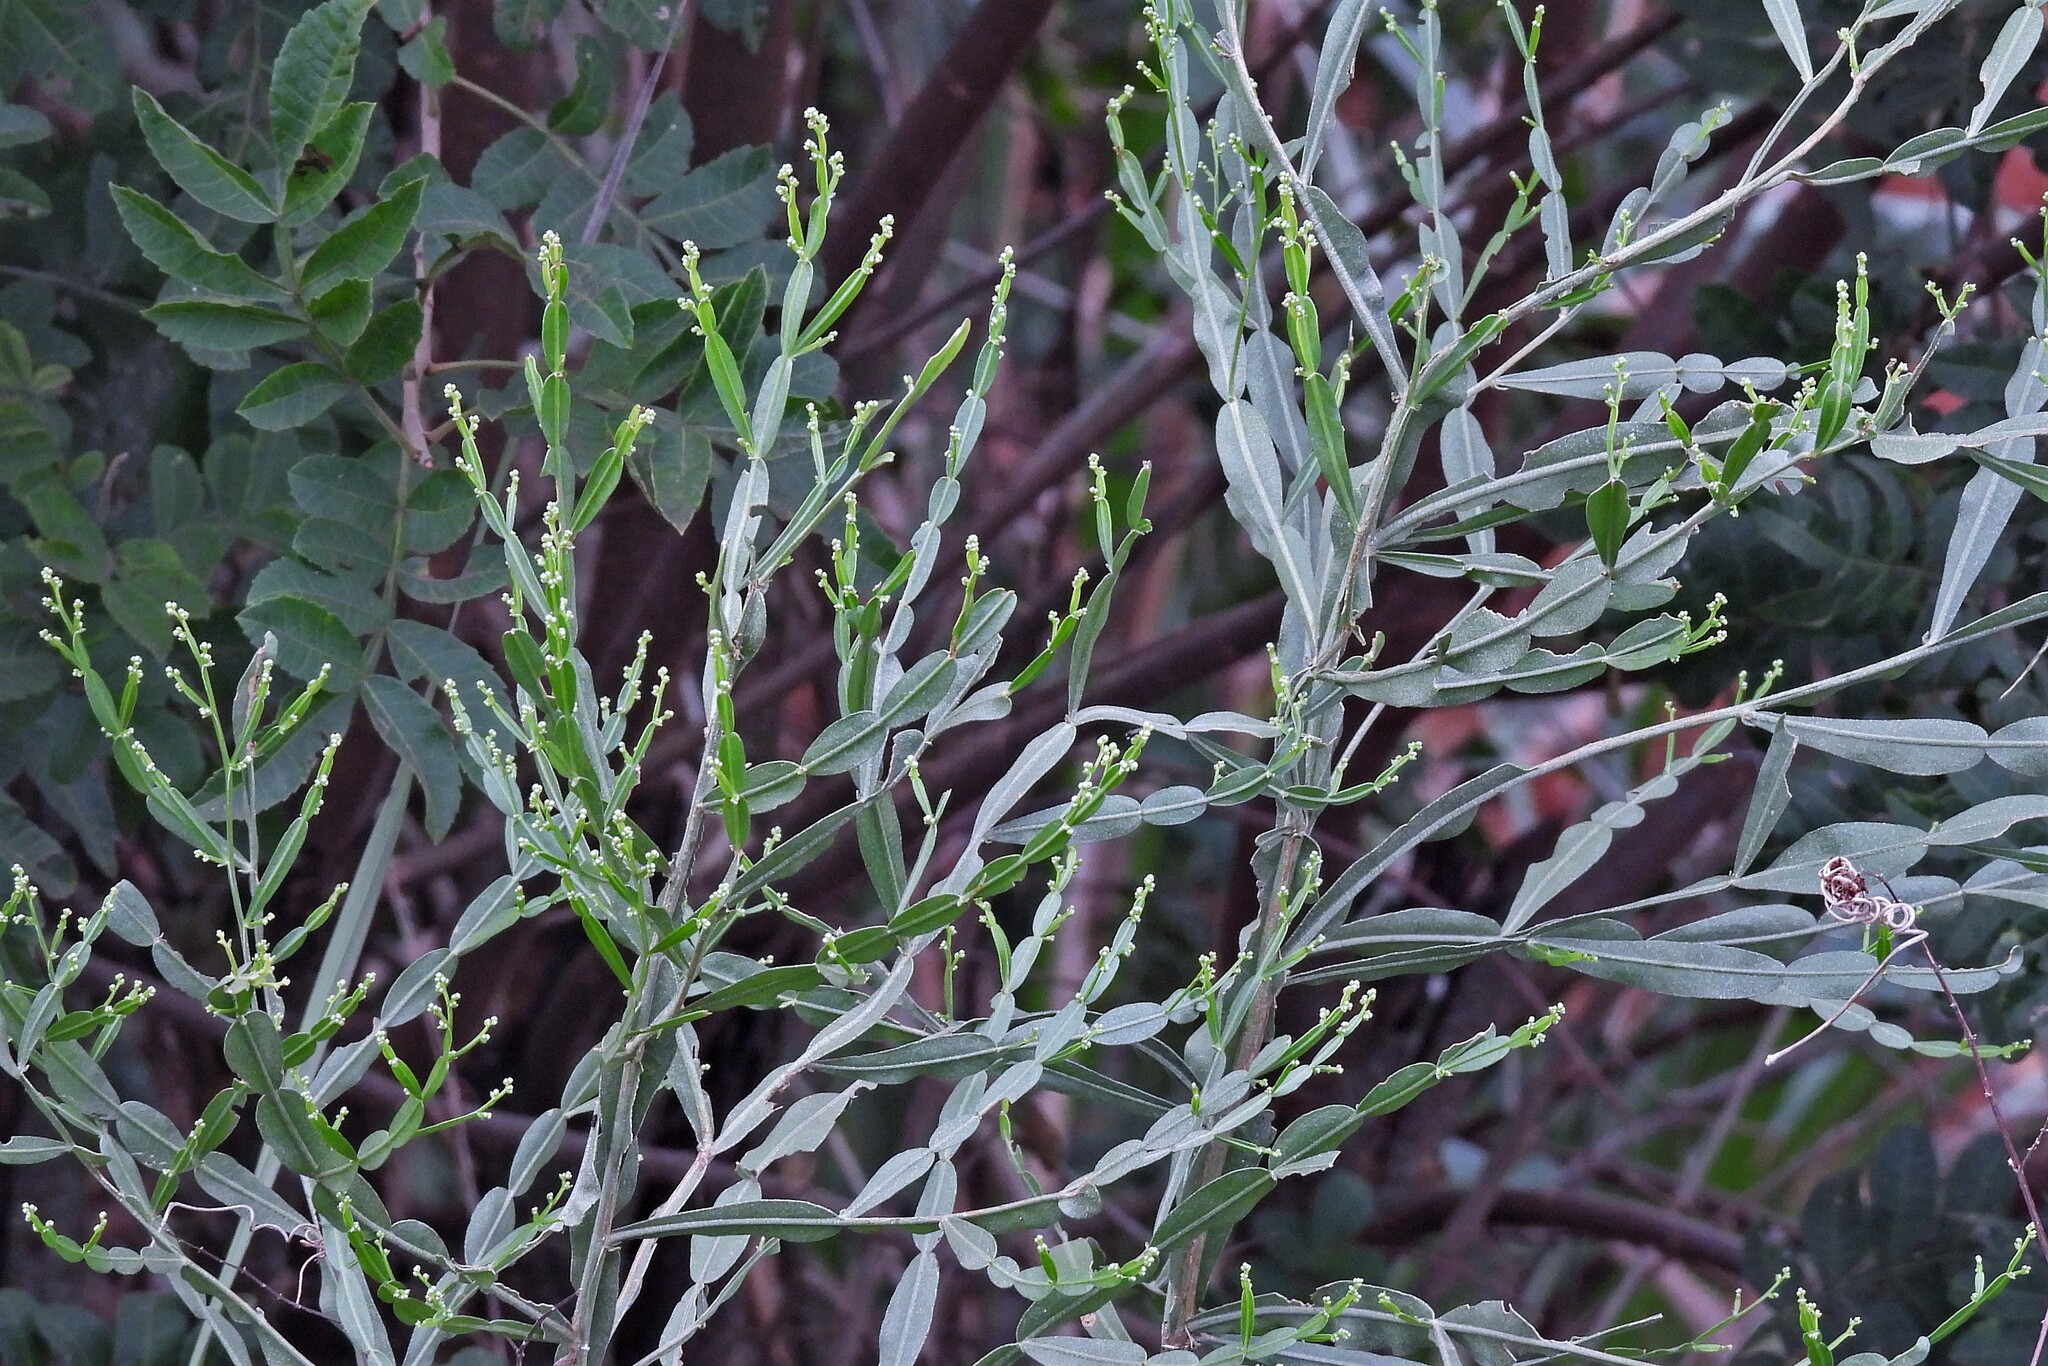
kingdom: Plantae
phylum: Tracheophyta
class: Magnoliopsida
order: Asterales
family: Asteraceae
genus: Baccharis
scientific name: Baccharis articulata
